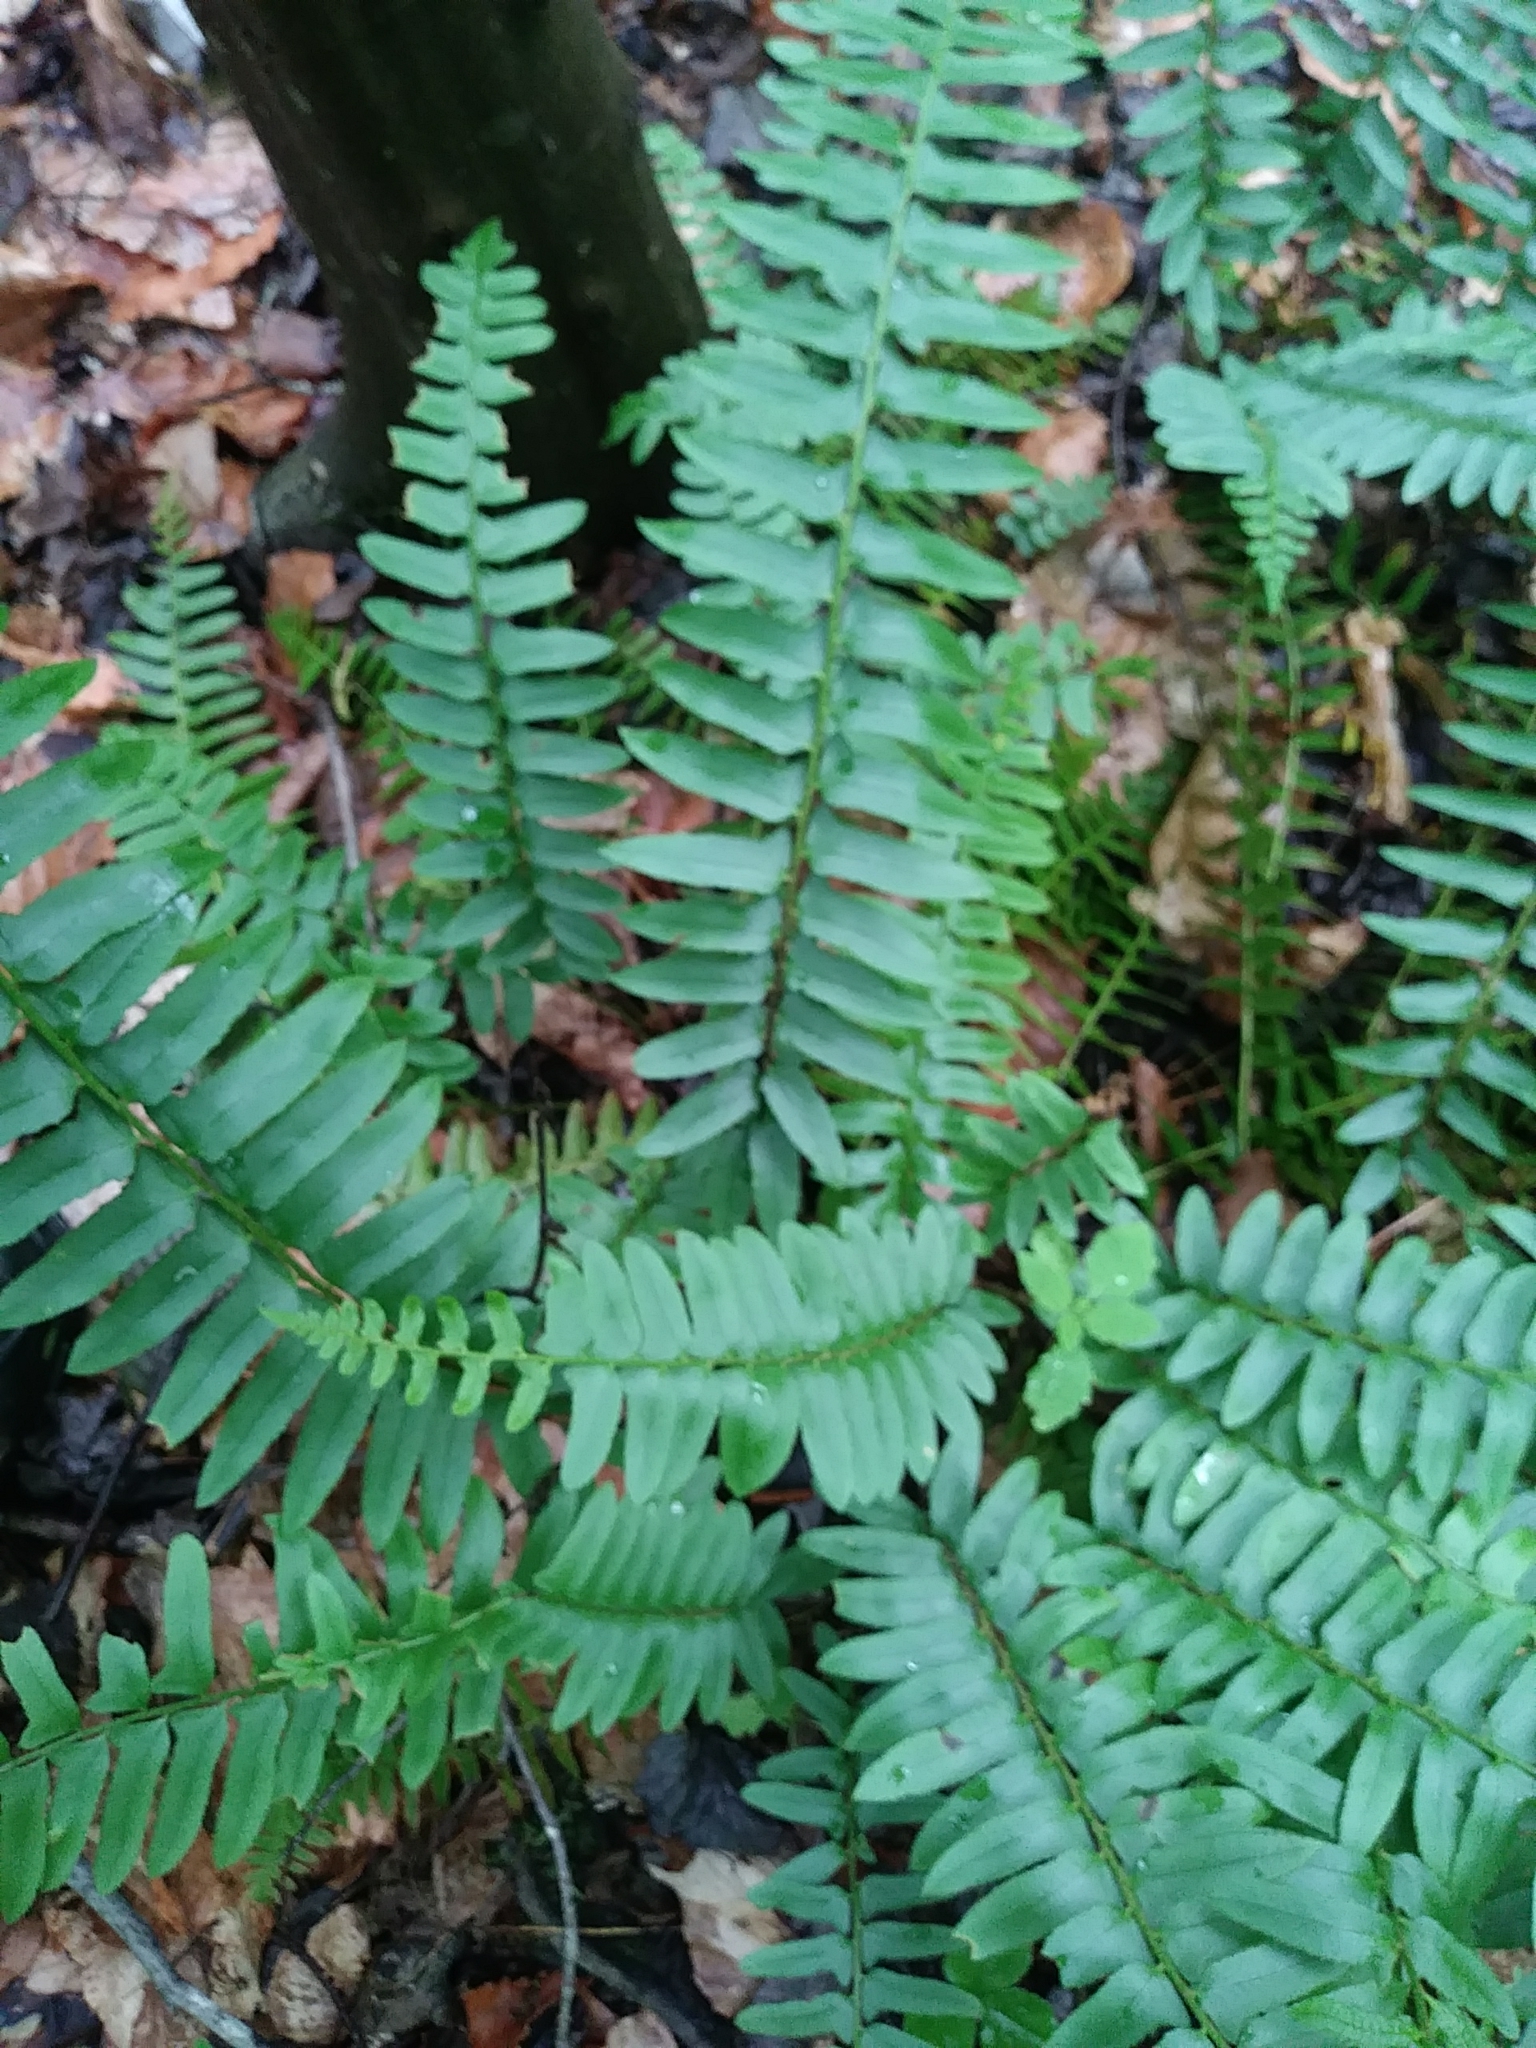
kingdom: Plantae
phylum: Tracheophyta
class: Polypodiopsida
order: Polypodiales
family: Dryopteridaceae
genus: Polystichum
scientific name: Polystichum acrostichoides
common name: Christmas fern
